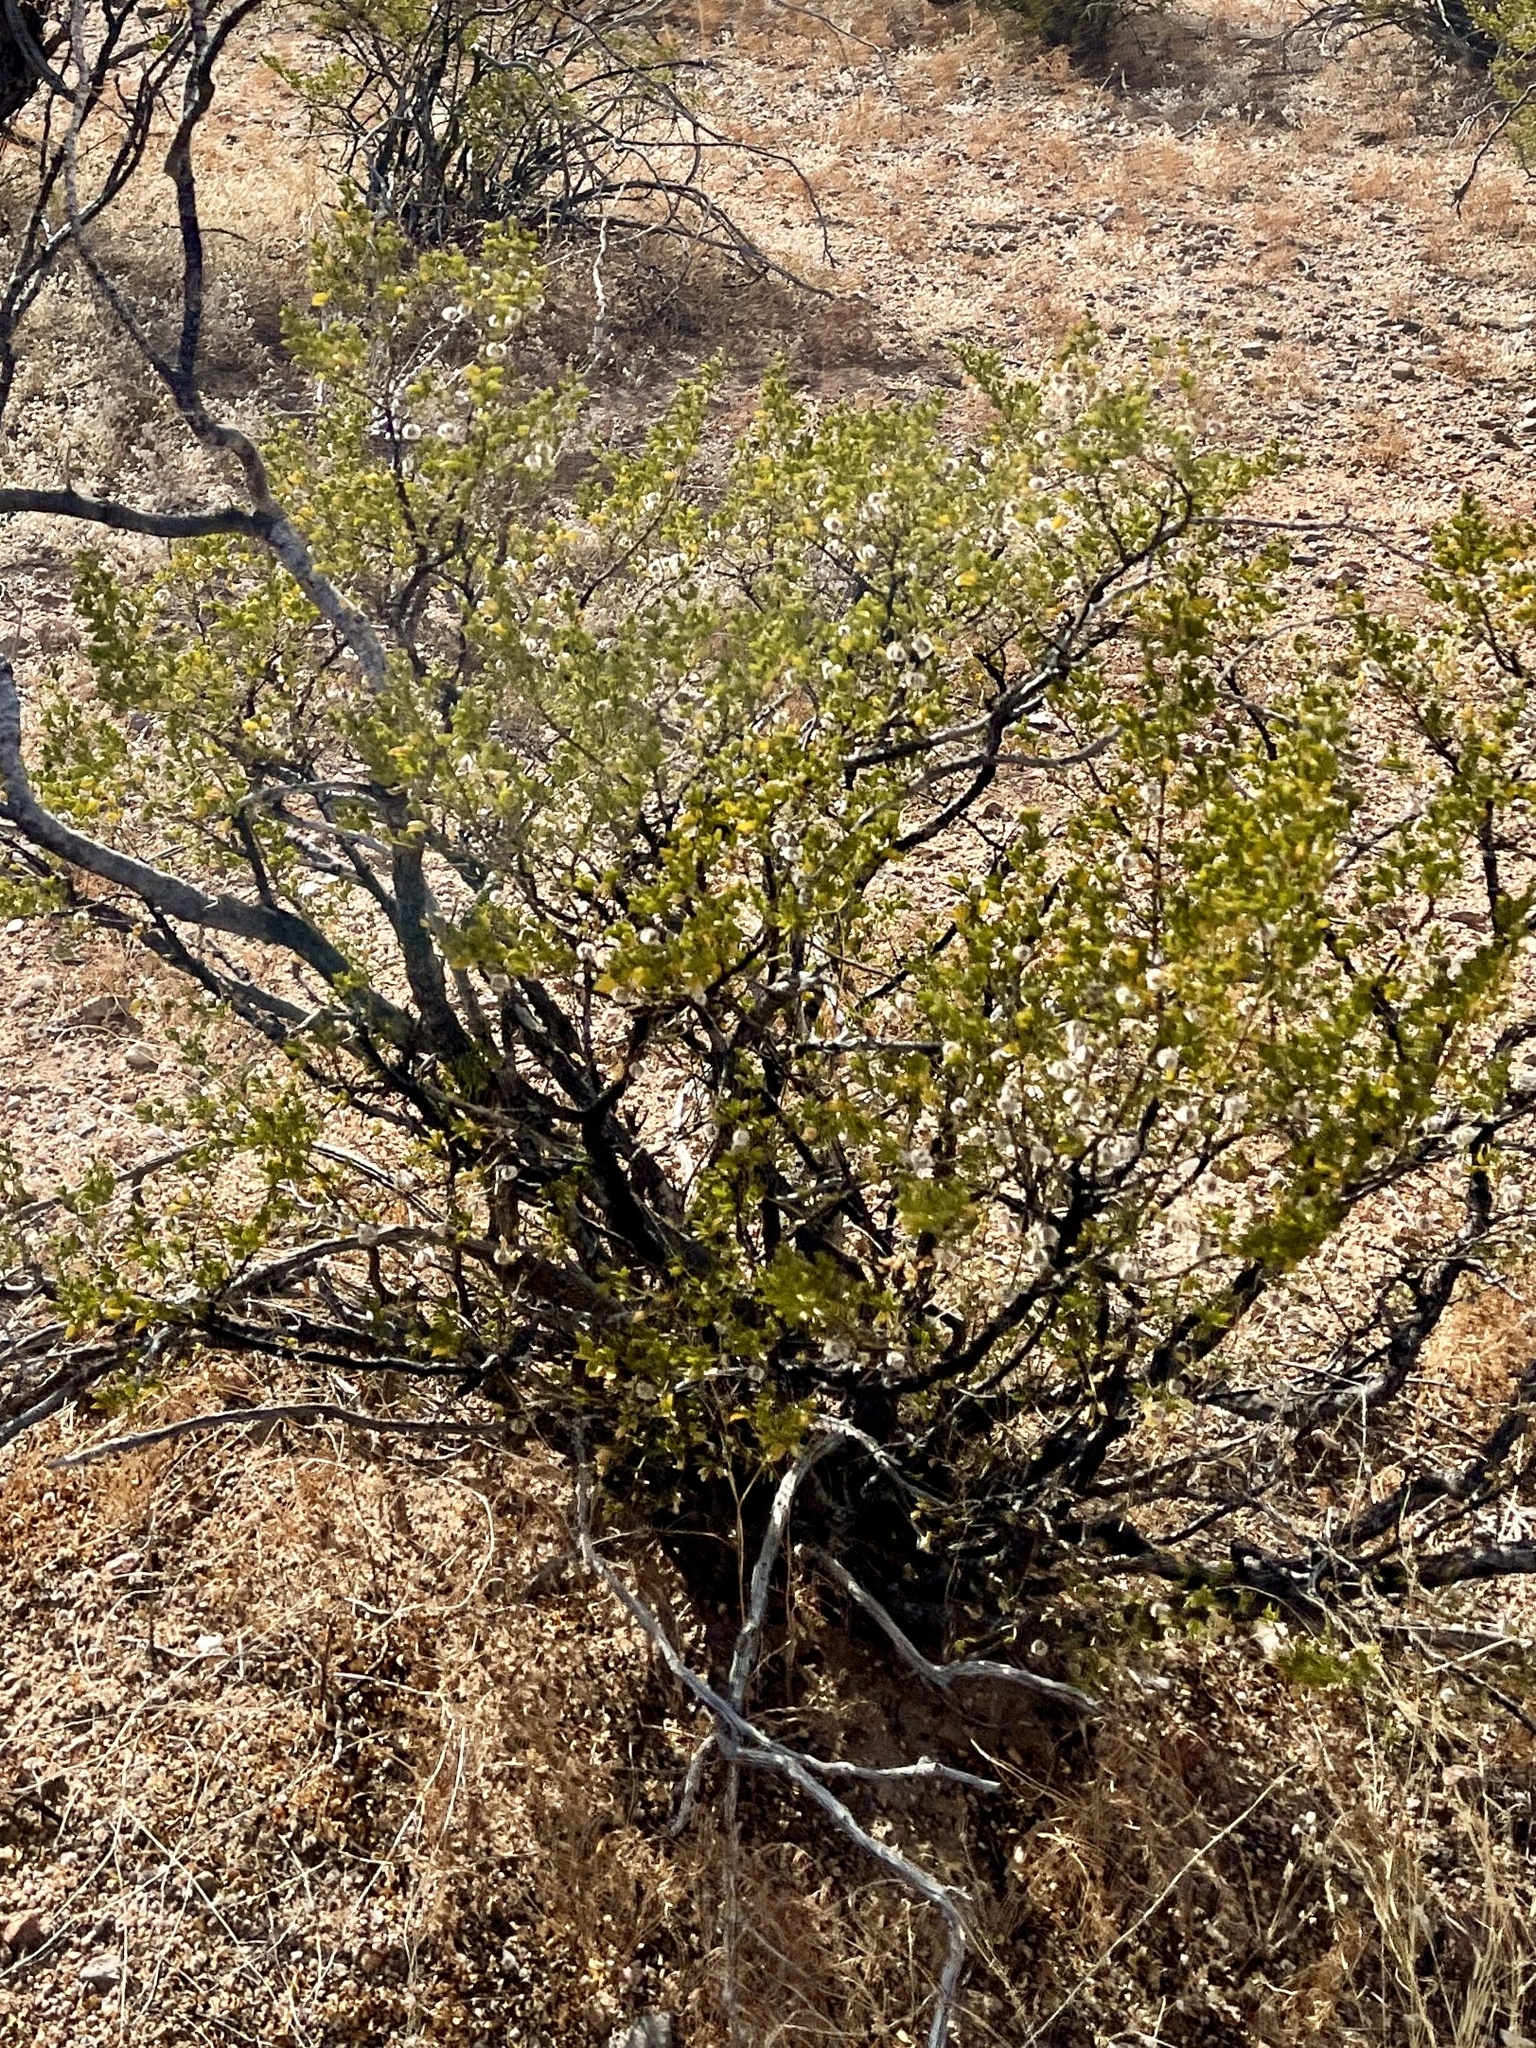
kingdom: Plantae
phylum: Tracheophyta
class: Magnoliopsida
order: Asterales
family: Asteraceae
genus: Flourensia
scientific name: Flourensia cernua
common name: Varnishbush
